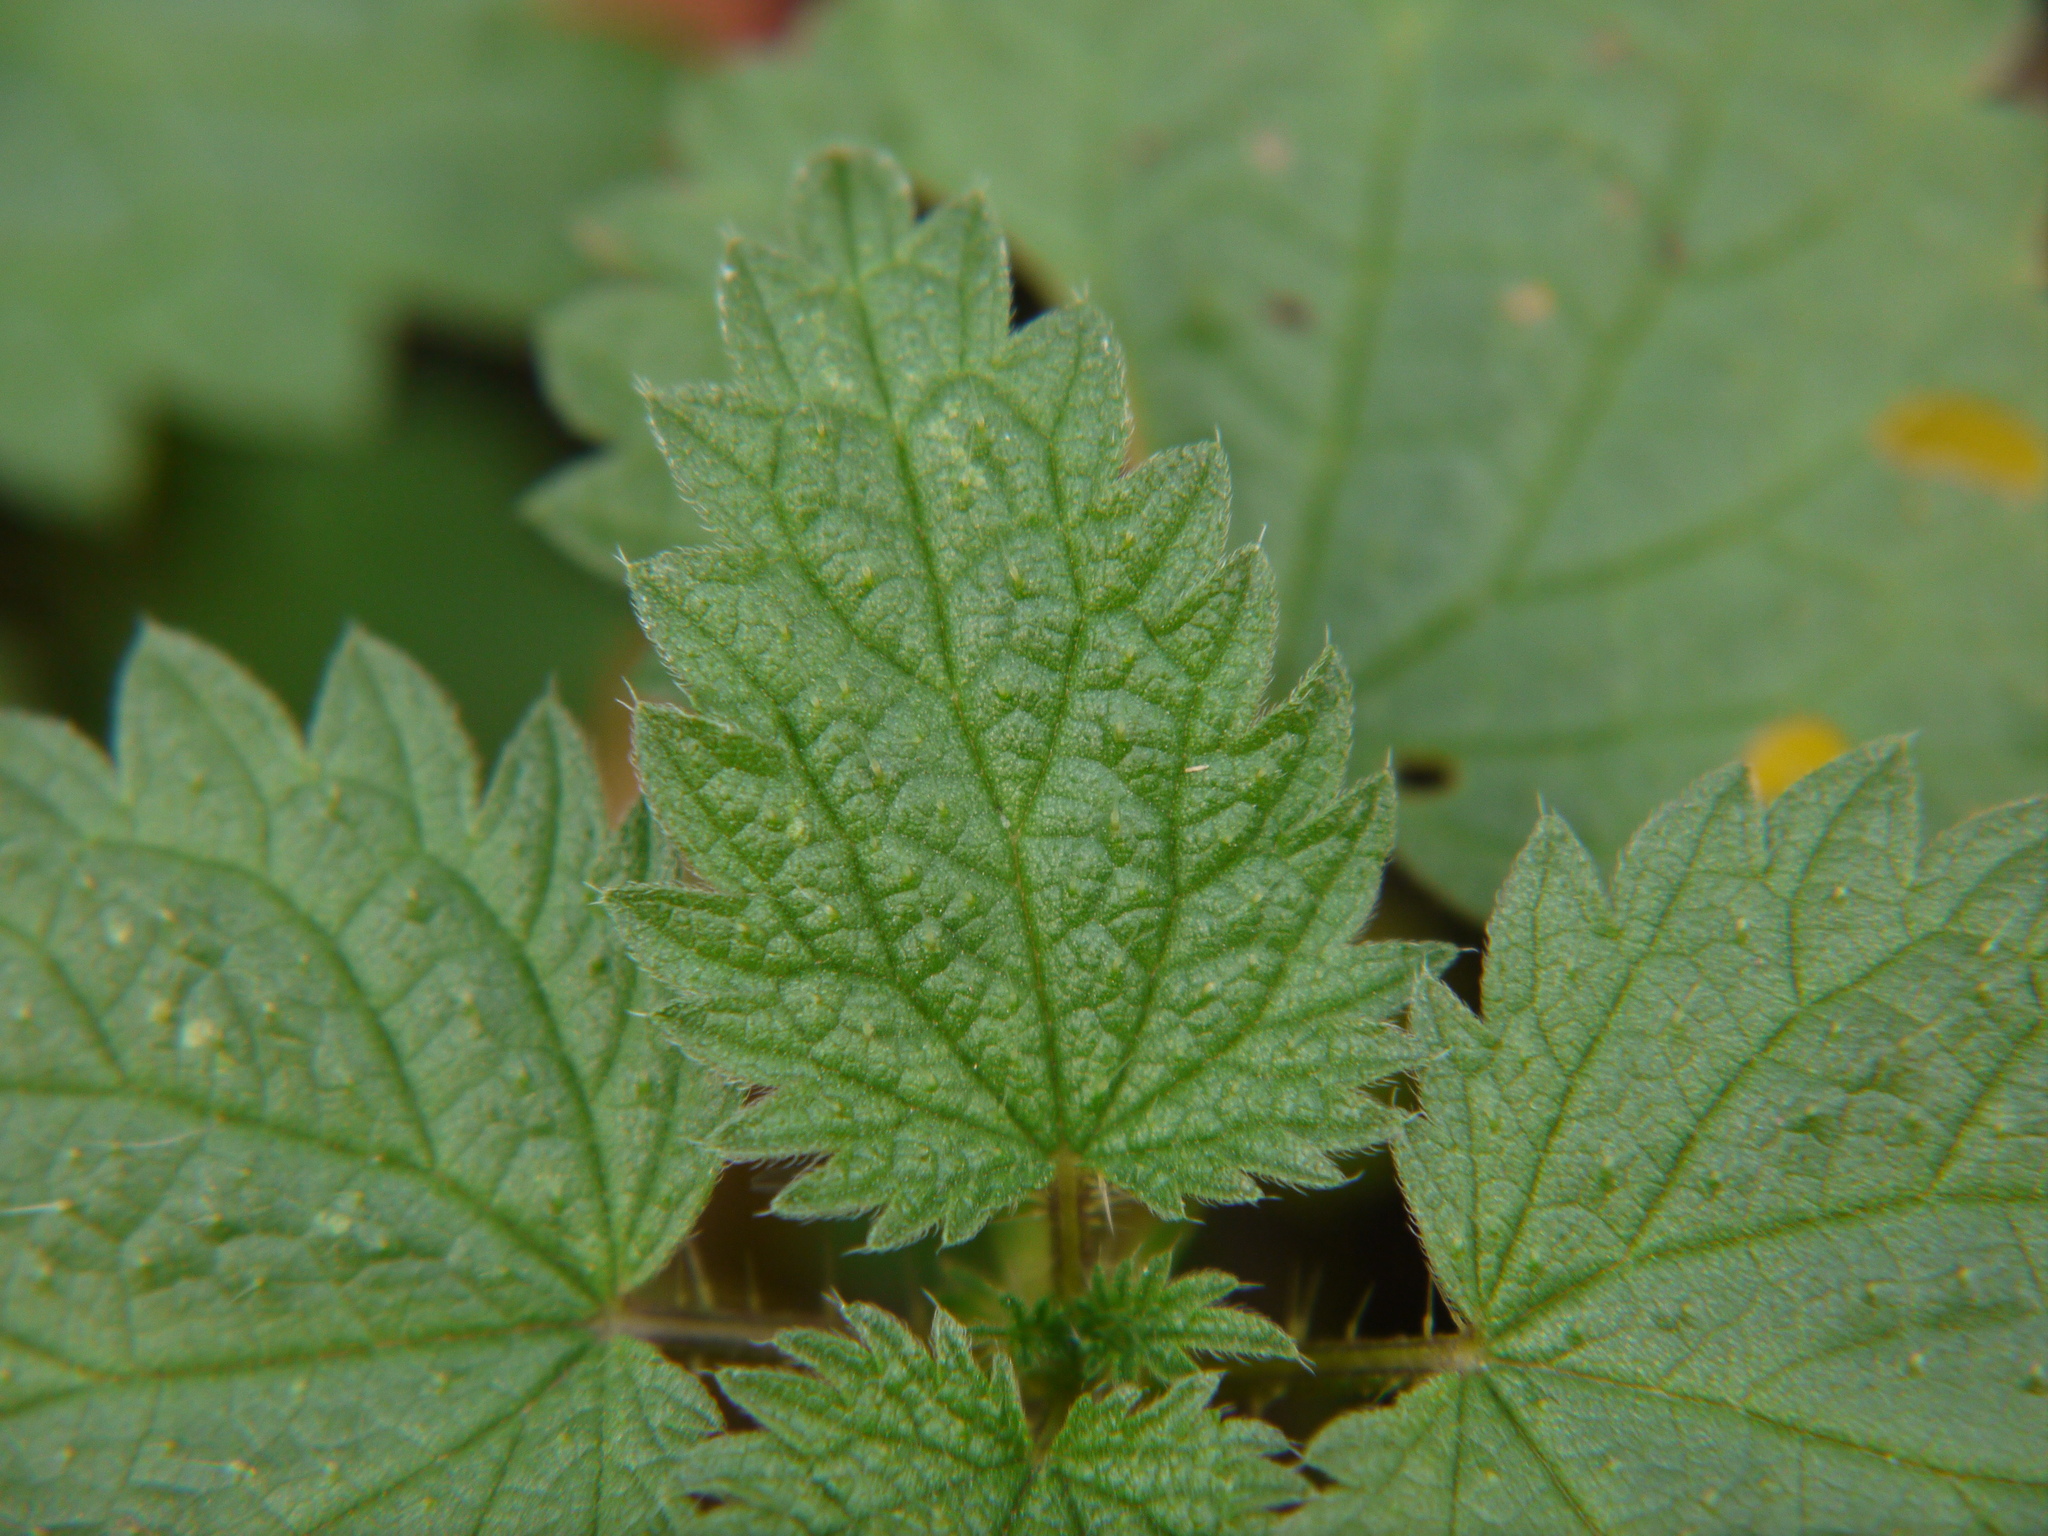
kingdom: Plantae
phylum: Tracheophyta
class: Magnoliopsida
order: Rosales
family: Urticaceae
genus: Urtica
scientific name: Urtica dioica
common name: Common nettle
